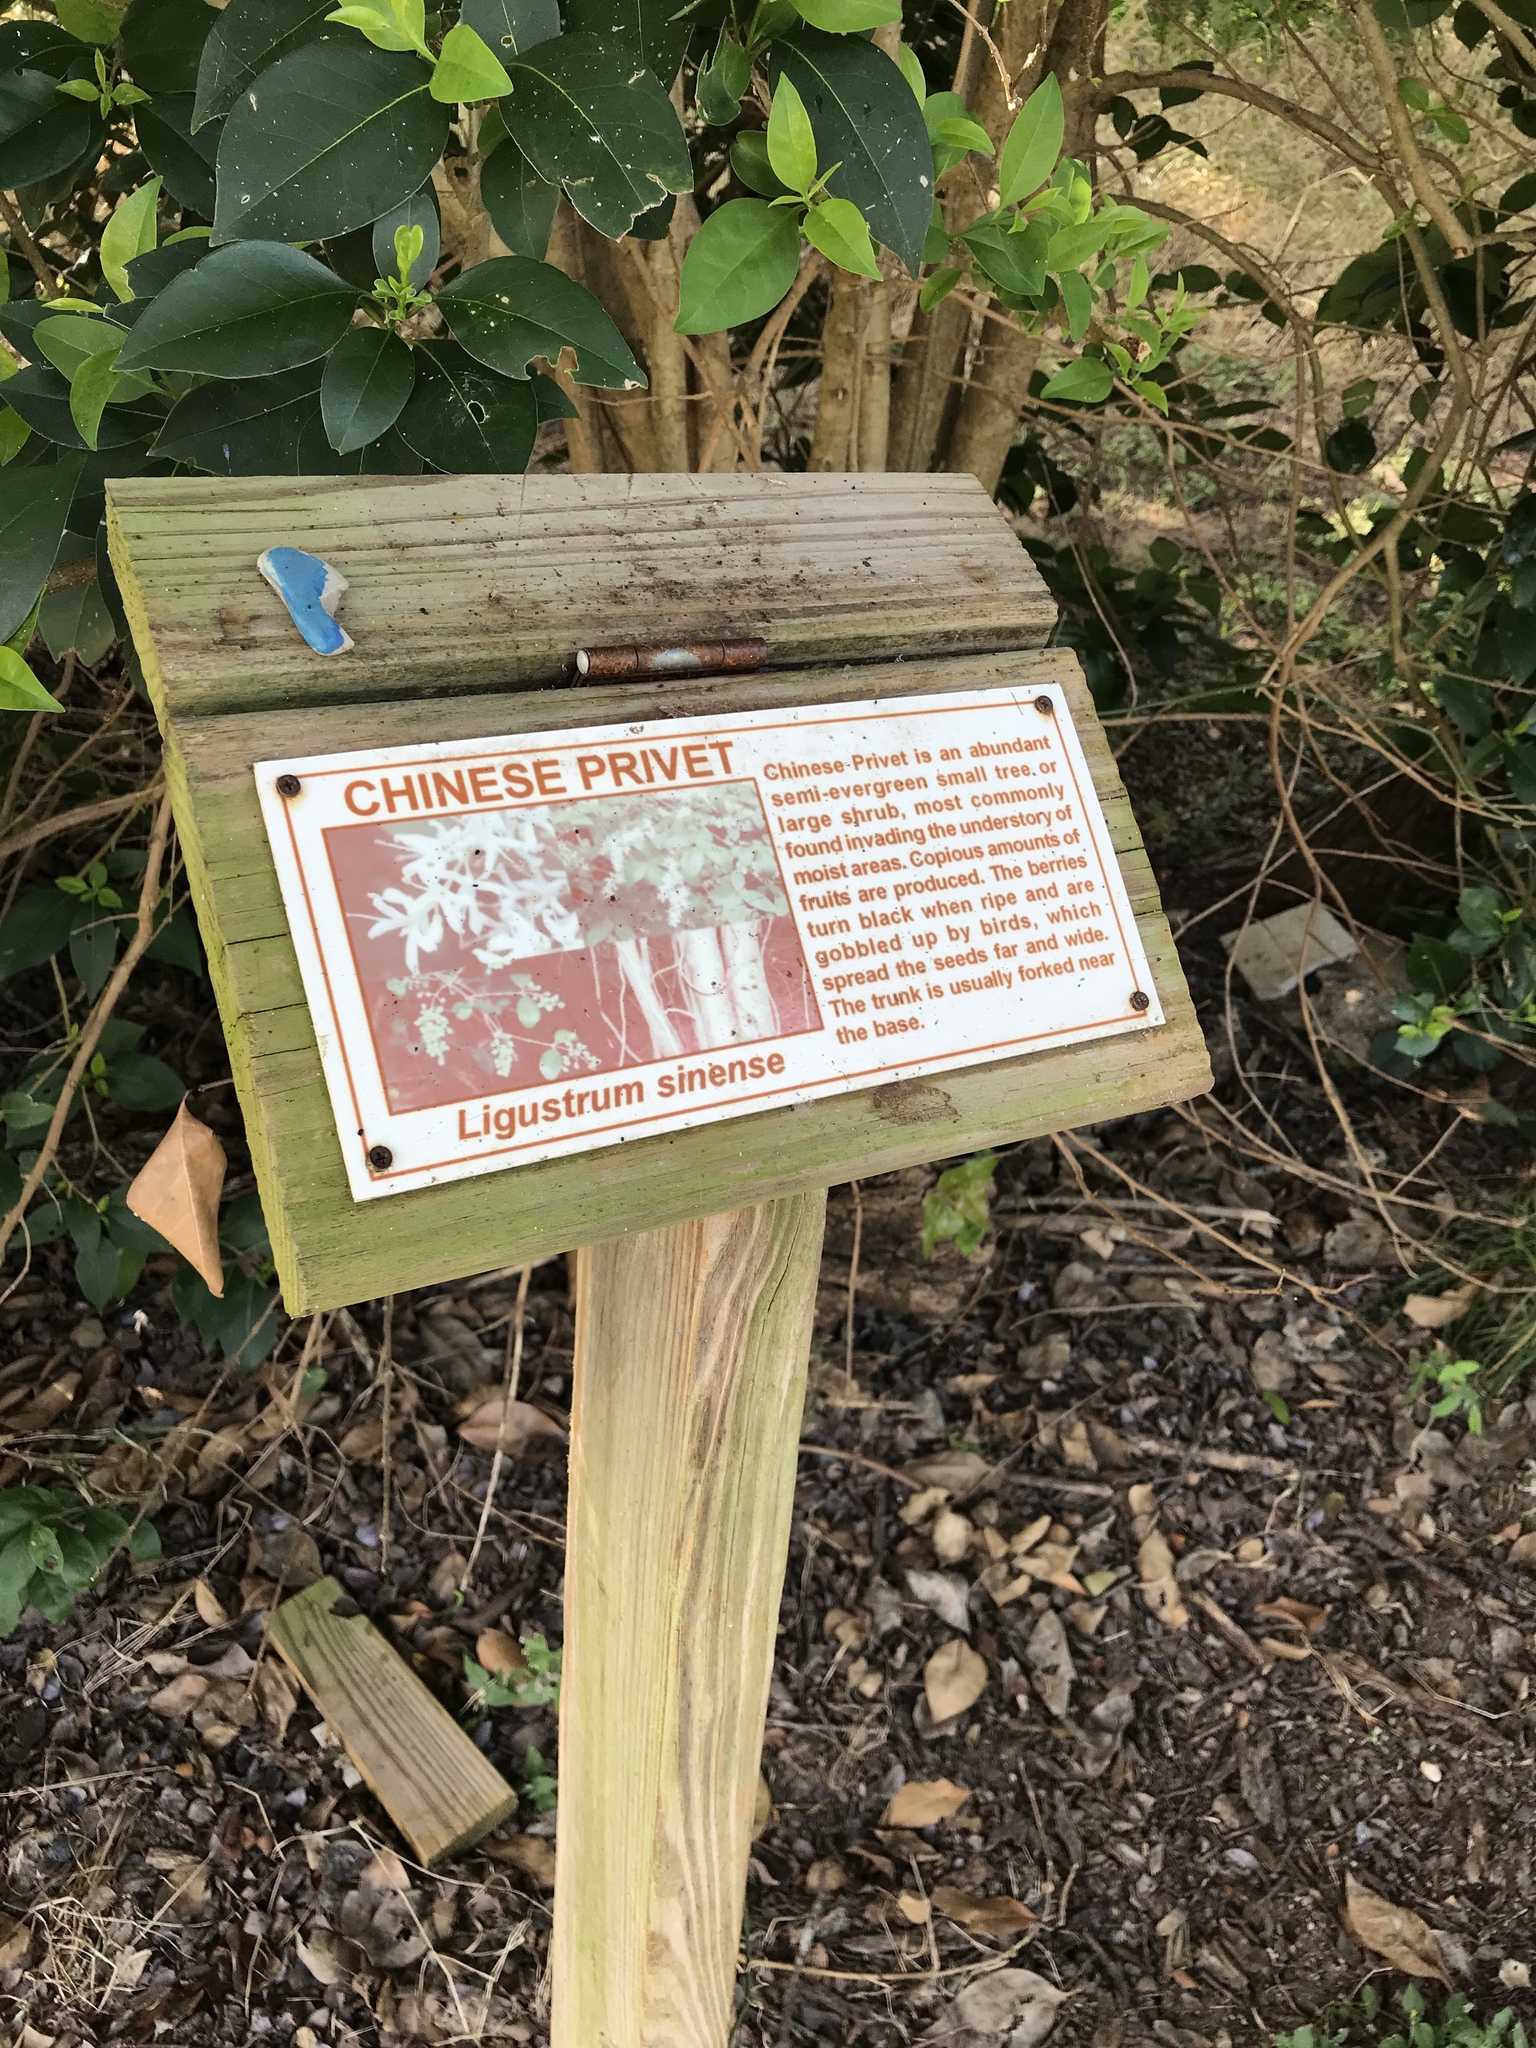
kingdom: Plantae
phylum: Tracheophyta
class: Magnoliopsida
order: Lamiales
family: Oleaceae
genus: Ligustrum
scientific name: Ligustrum lucidum
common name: Glossy privet
